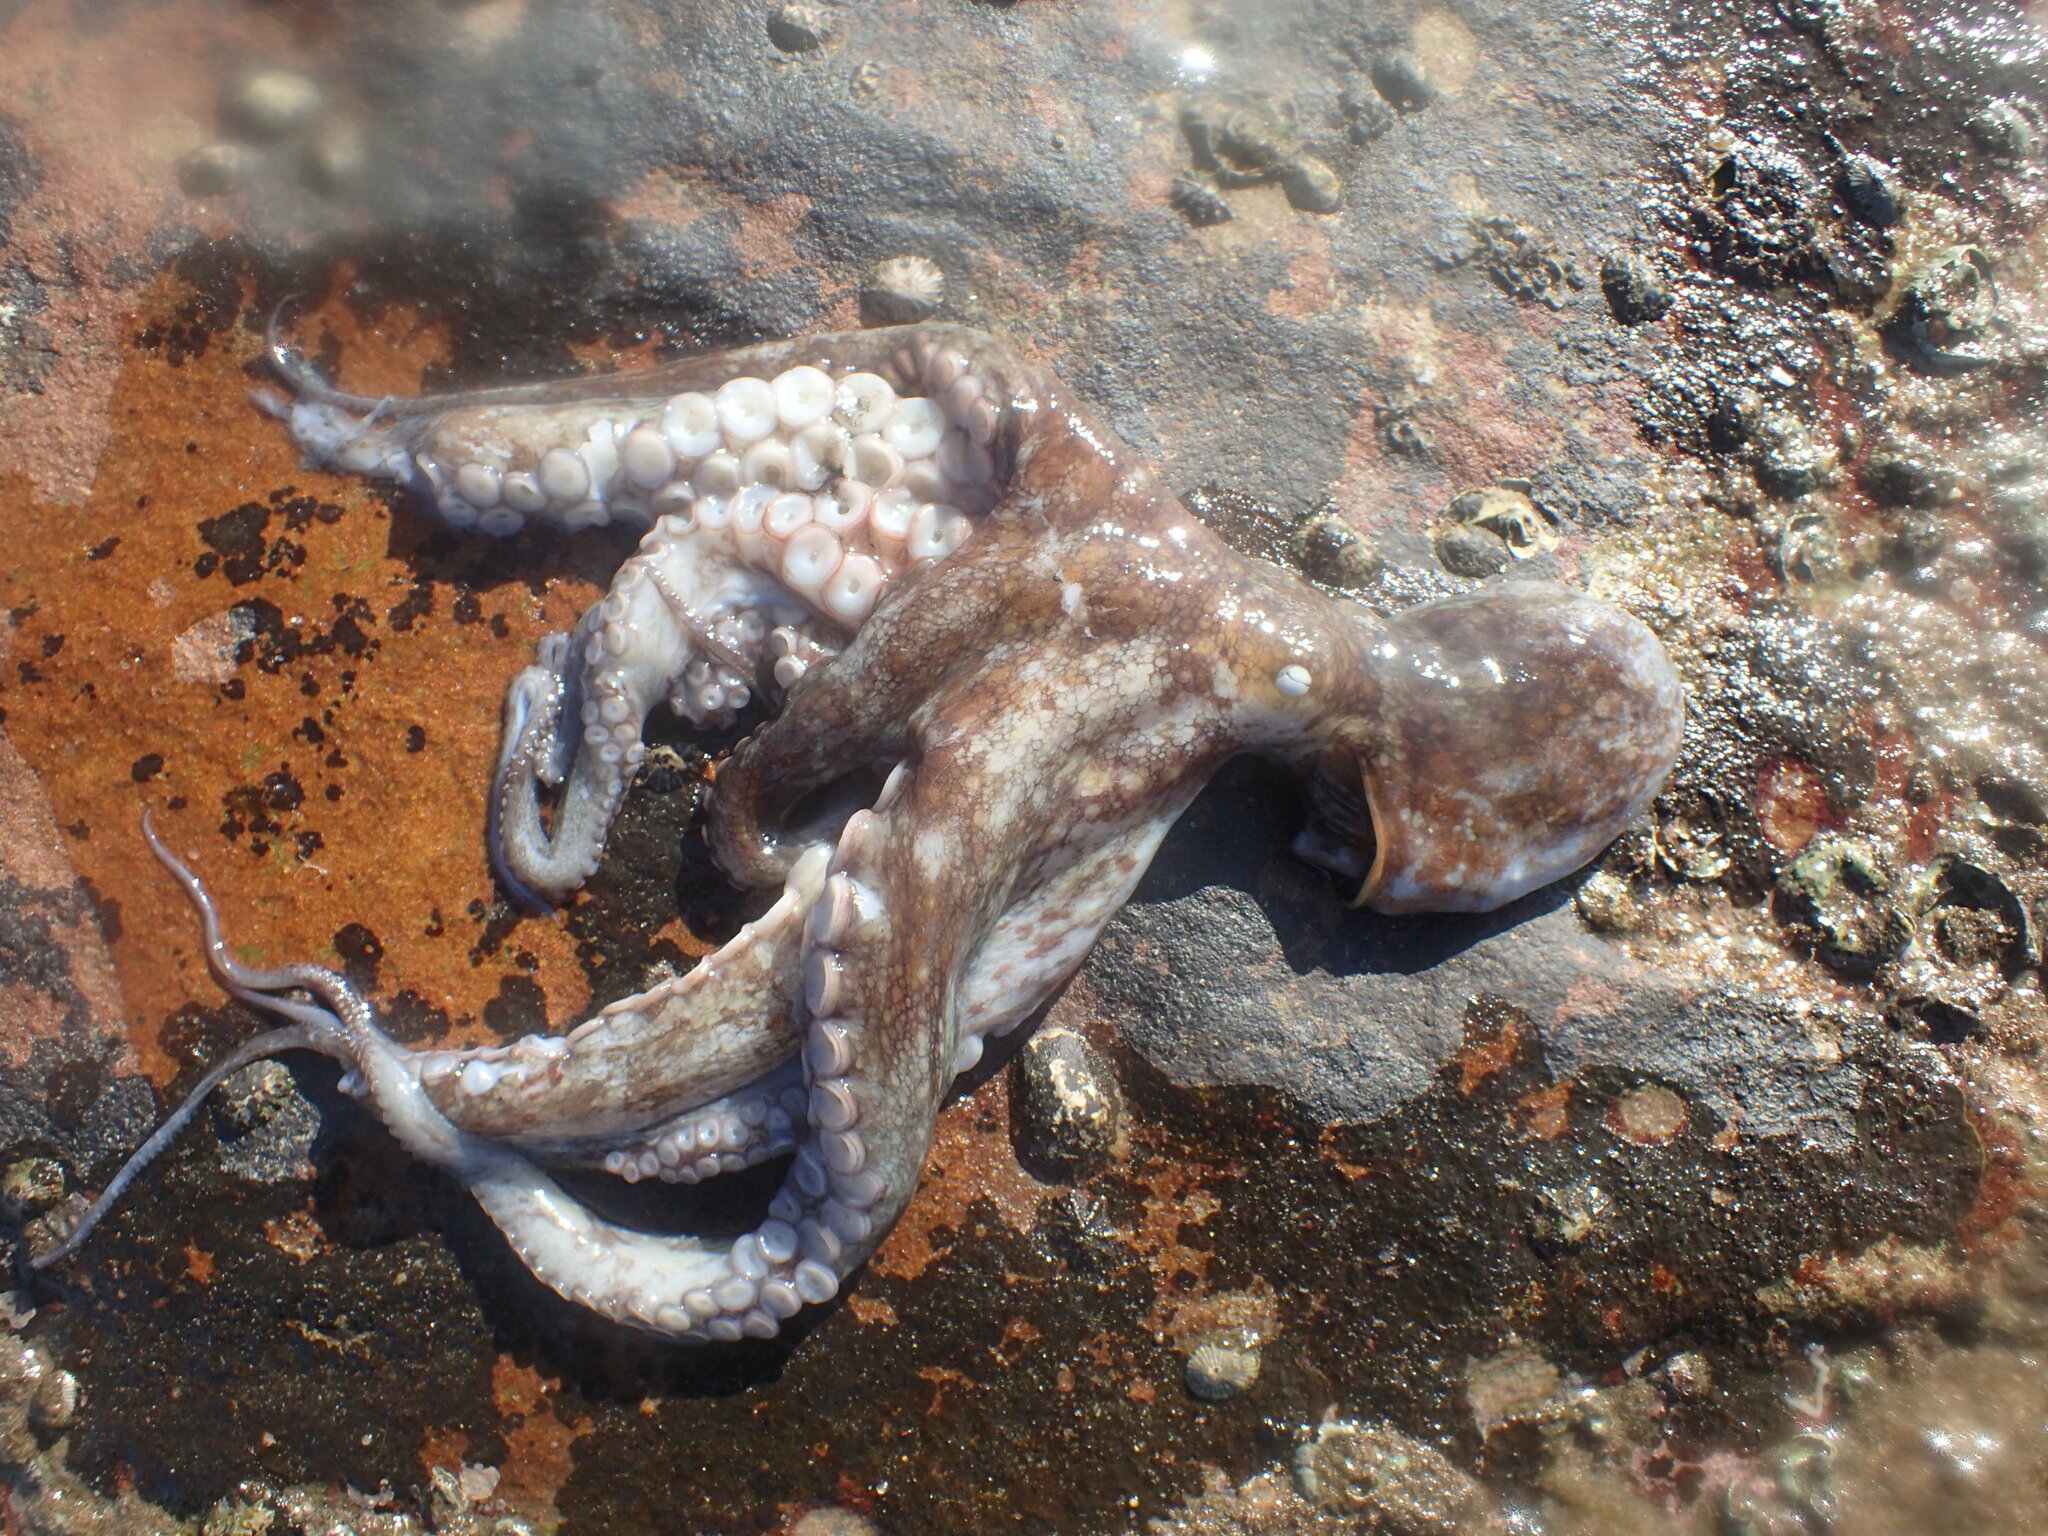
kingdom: Animalia
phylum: Mollusca
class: Cephalopoda
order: Octopoda
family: Octopodidae
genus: Octopus
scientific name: Octopus vulgaris
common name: Common octopus
